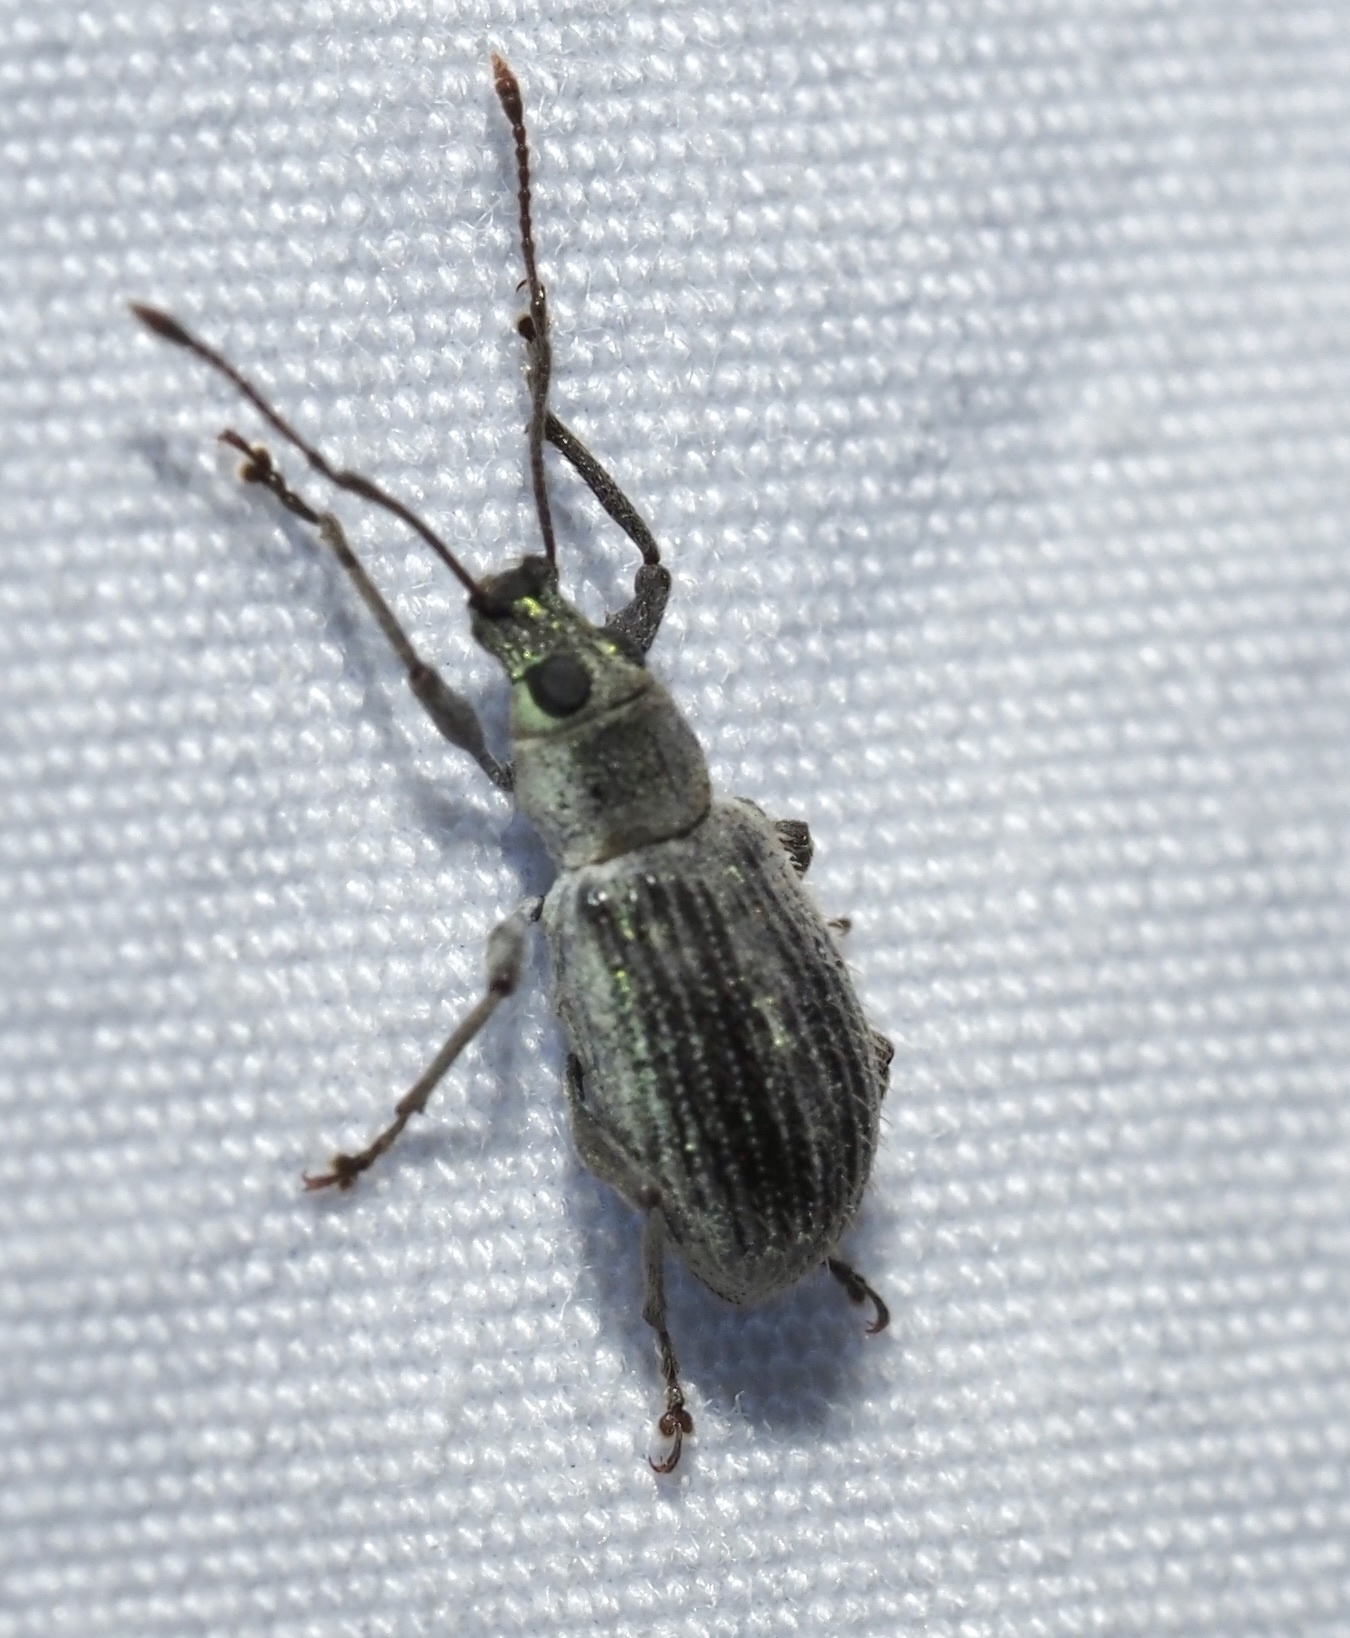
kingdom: Animalia
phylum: Arthropoda
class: Insecta
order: Coleoptera
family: Curculionidae
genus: Cyrtepistomus
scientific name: Cyrtepistomus castaneus
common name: Weevil
